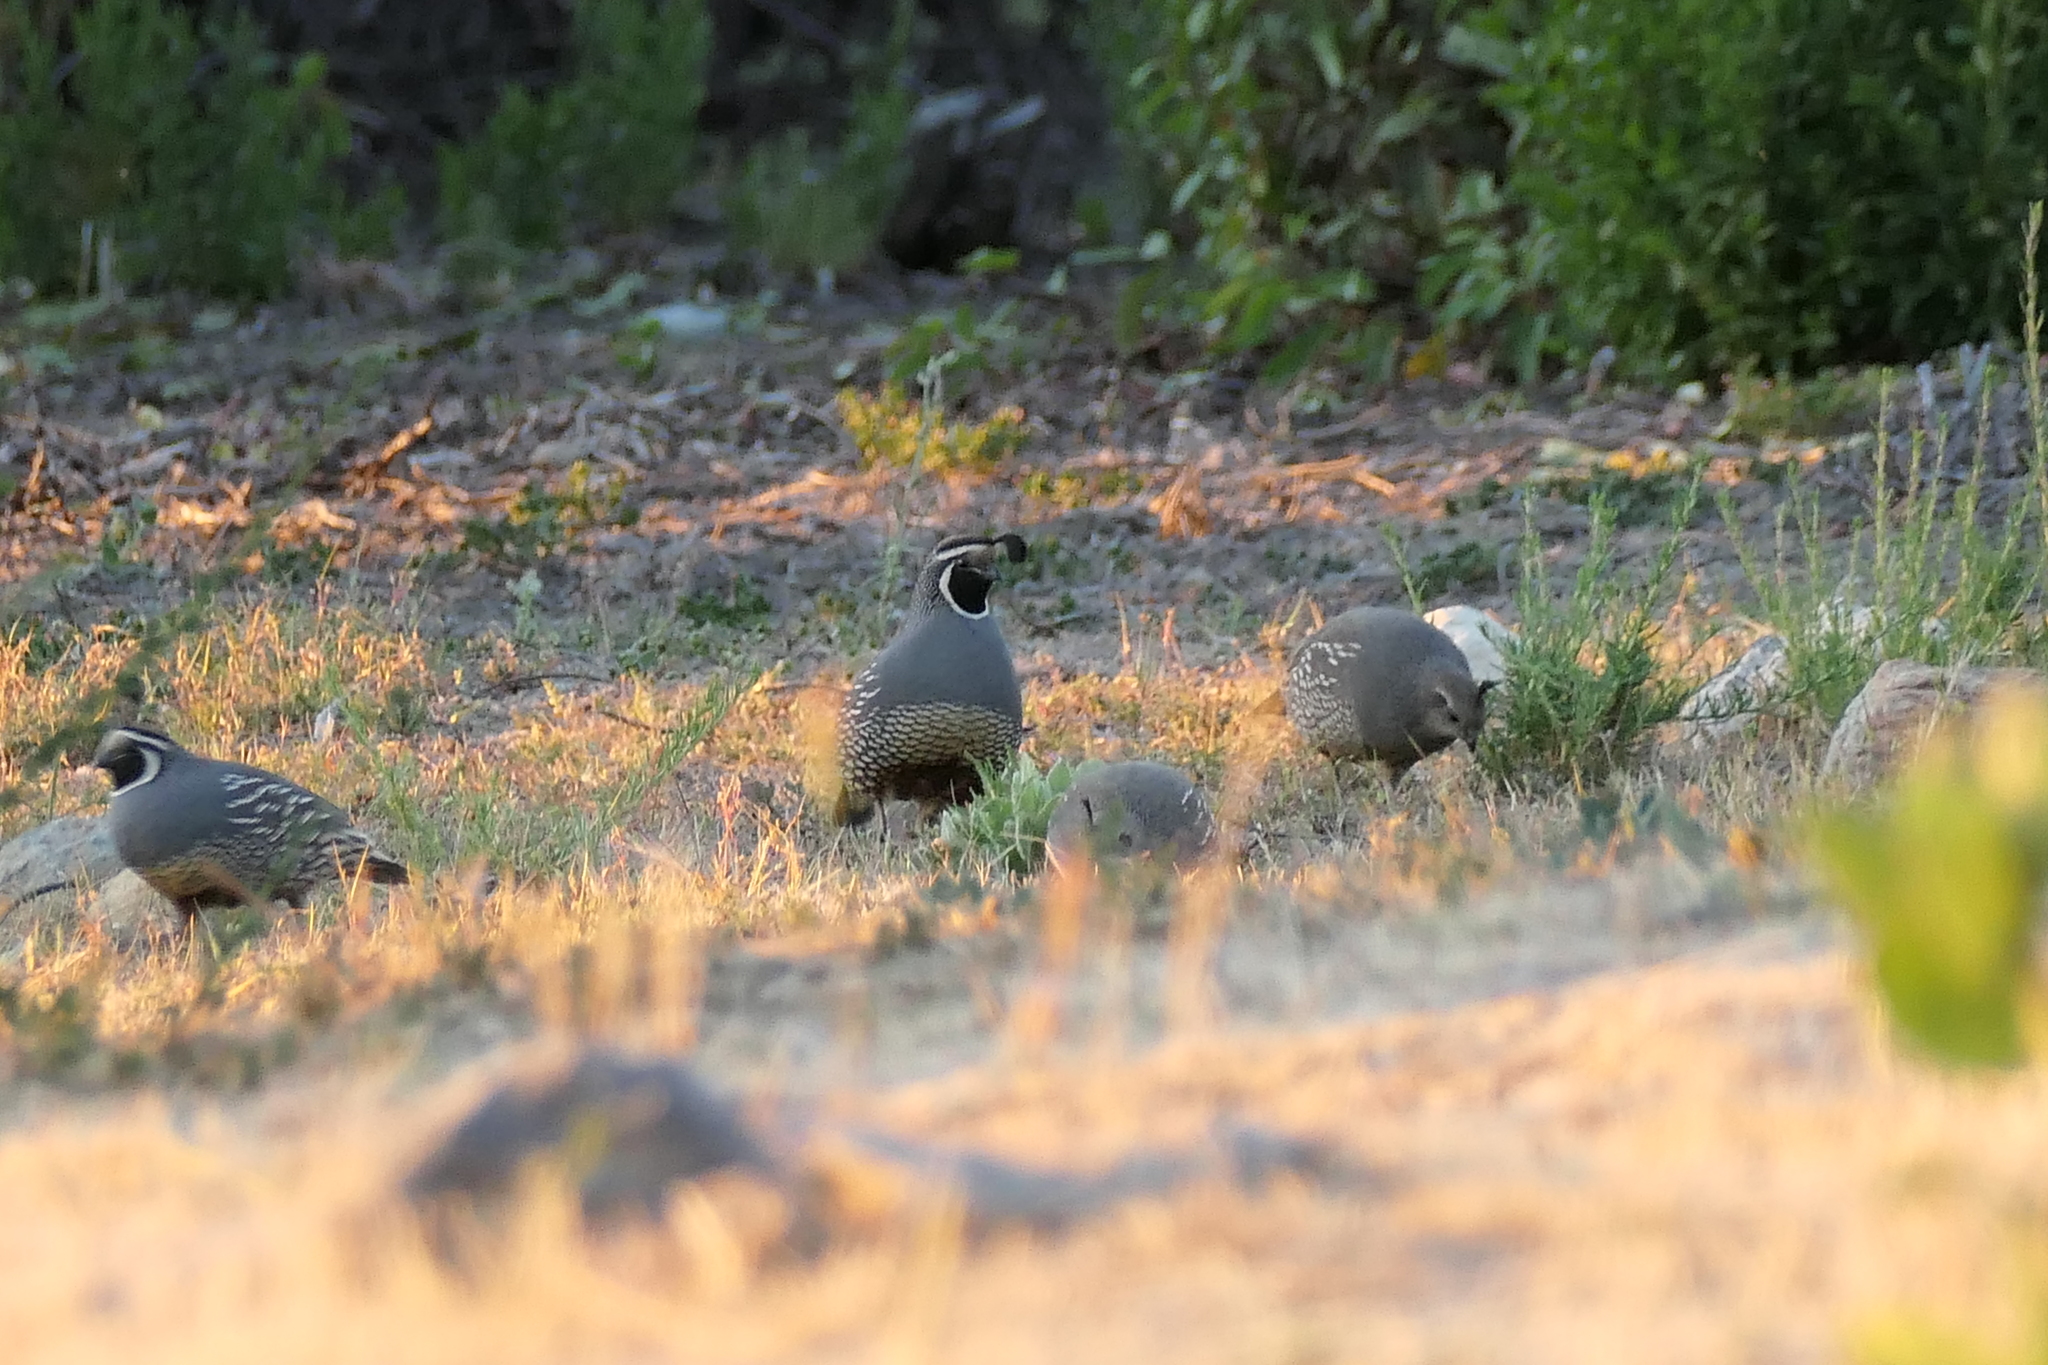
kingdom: Animalia
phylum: Chordata
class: Aves
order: Galliformes
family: Odontophoridae
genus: Callipepla
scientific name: Callipepla californica
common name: California quail
